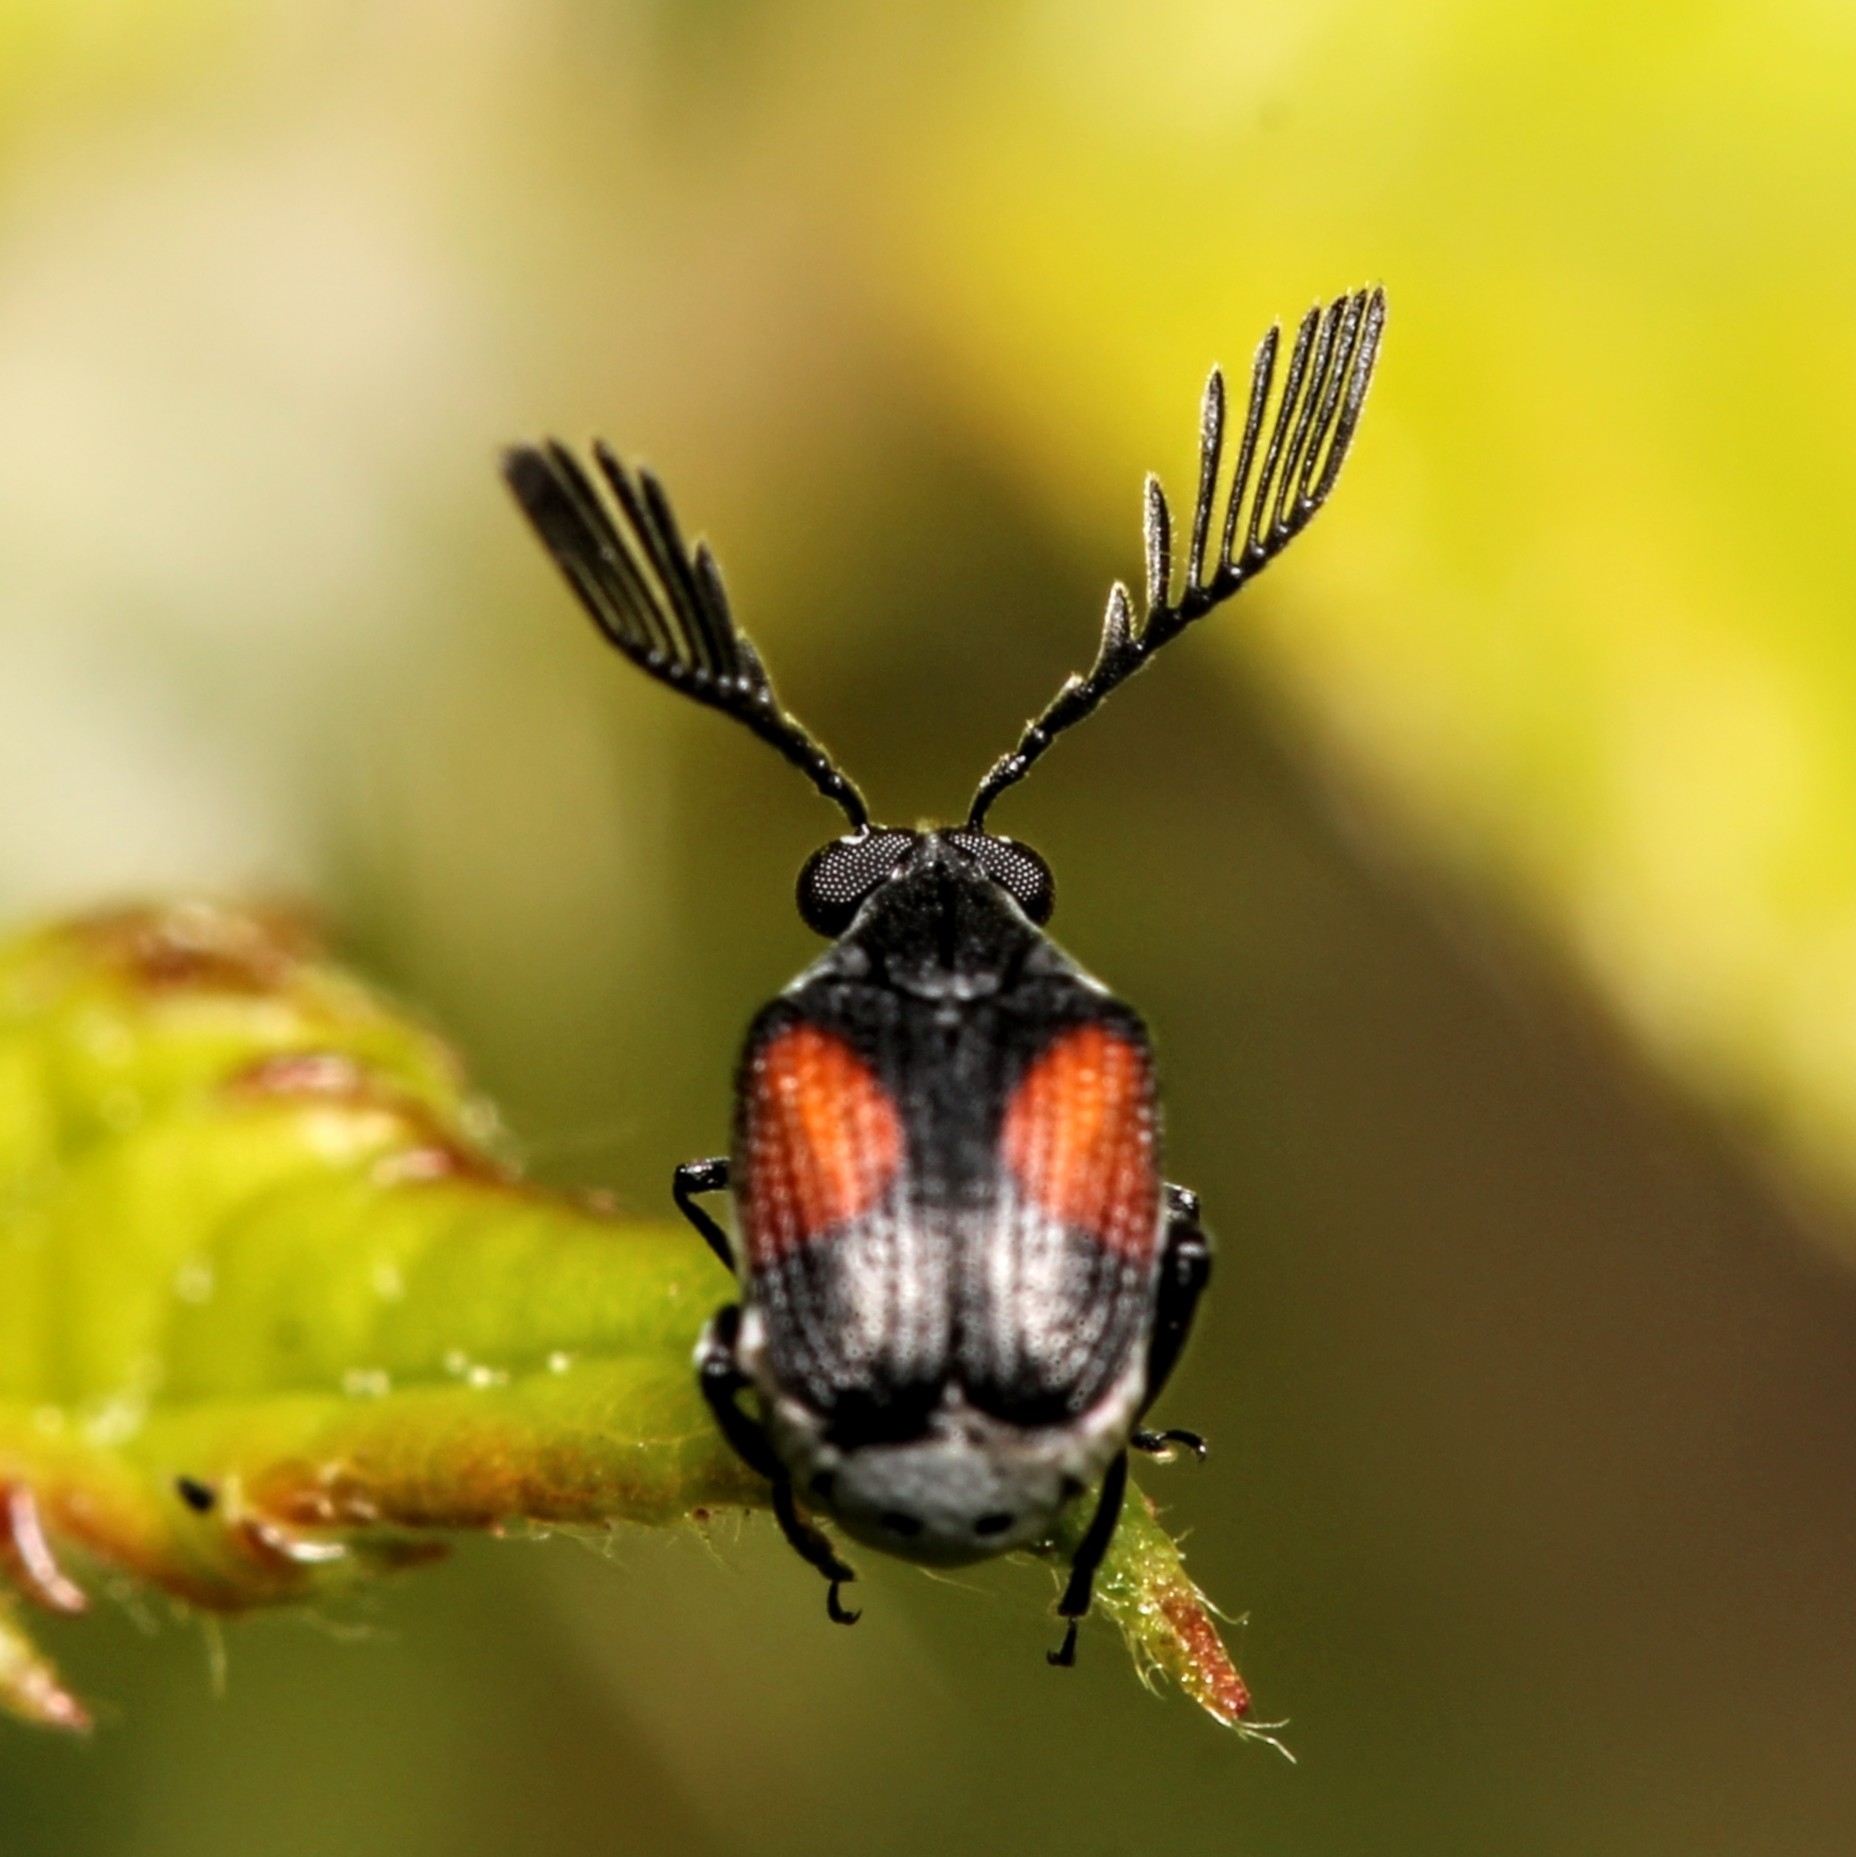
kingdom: Animalia
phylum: Arthropoda
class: Insecta
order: Coleoptera
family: Chrysomelidae
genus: Megacerus
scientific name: Megacerus discoidus
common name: Red megacerus
